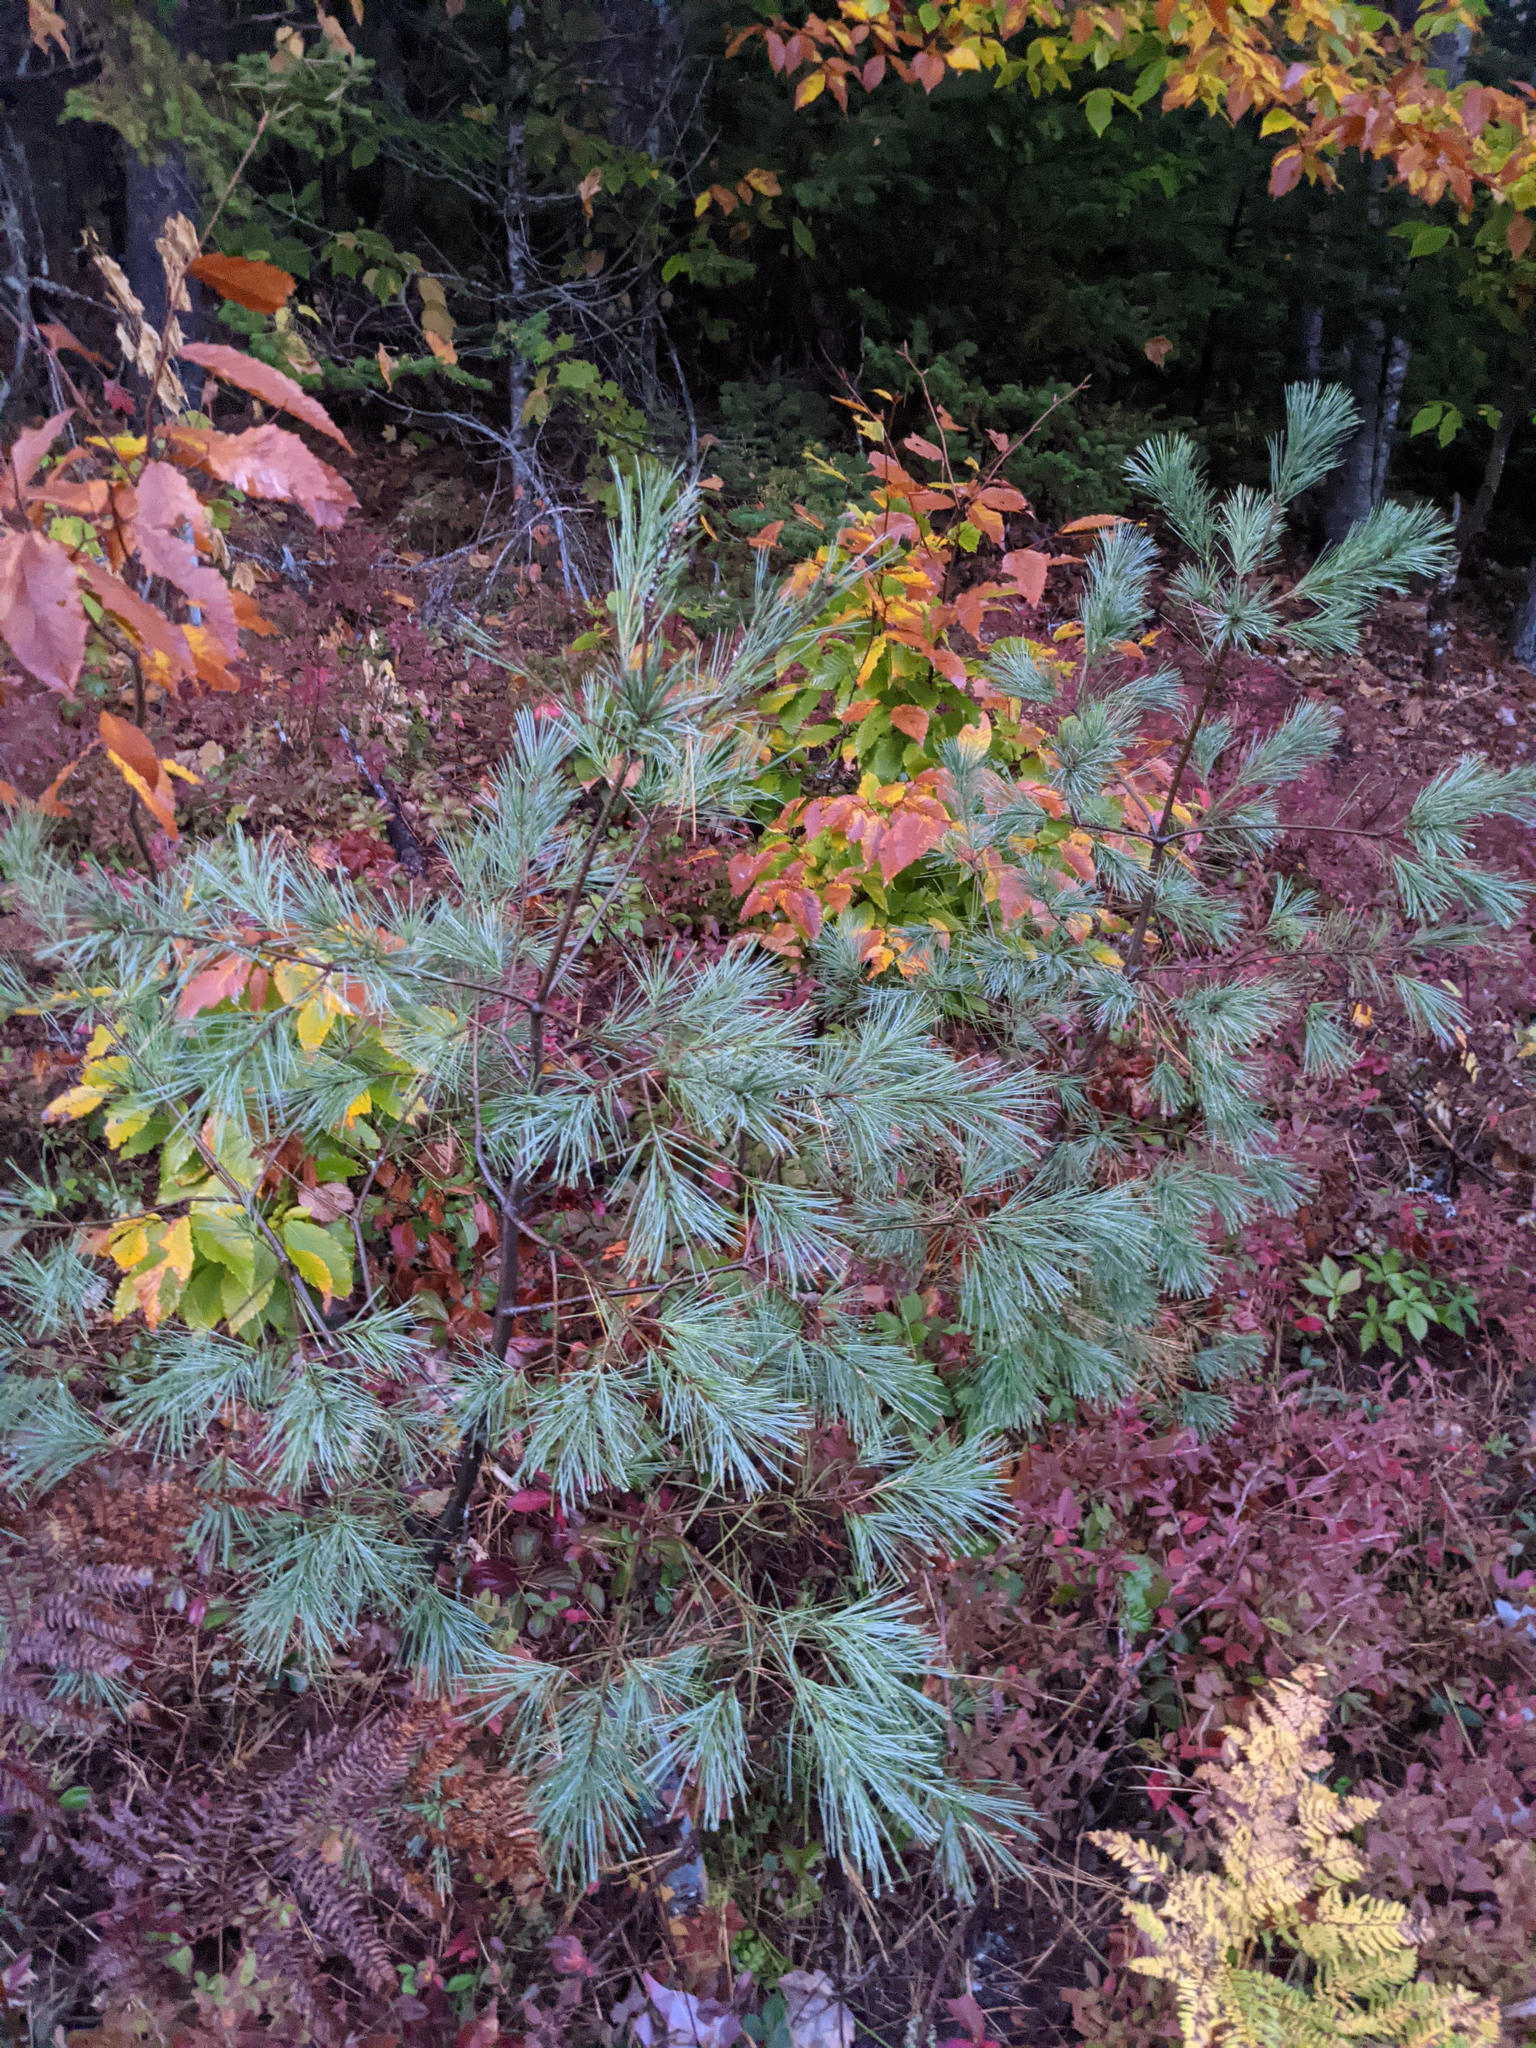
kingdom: Plantae
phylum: Tracheophyta
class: Pinopsida
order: Pinales
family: Pinaceae
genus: Pinus
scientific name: Pinus strobus
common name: Weymouth pine
